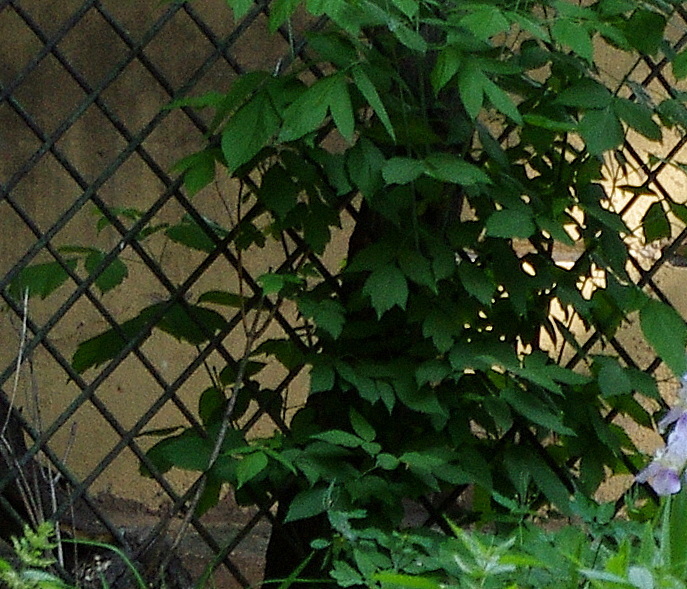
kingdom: Plantae
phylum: Tracheophyta
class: Magnoliopsida
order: Sapindales
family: Sapindaceae
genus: Acer
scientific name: Acer negundo
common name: Ashleaf maple
